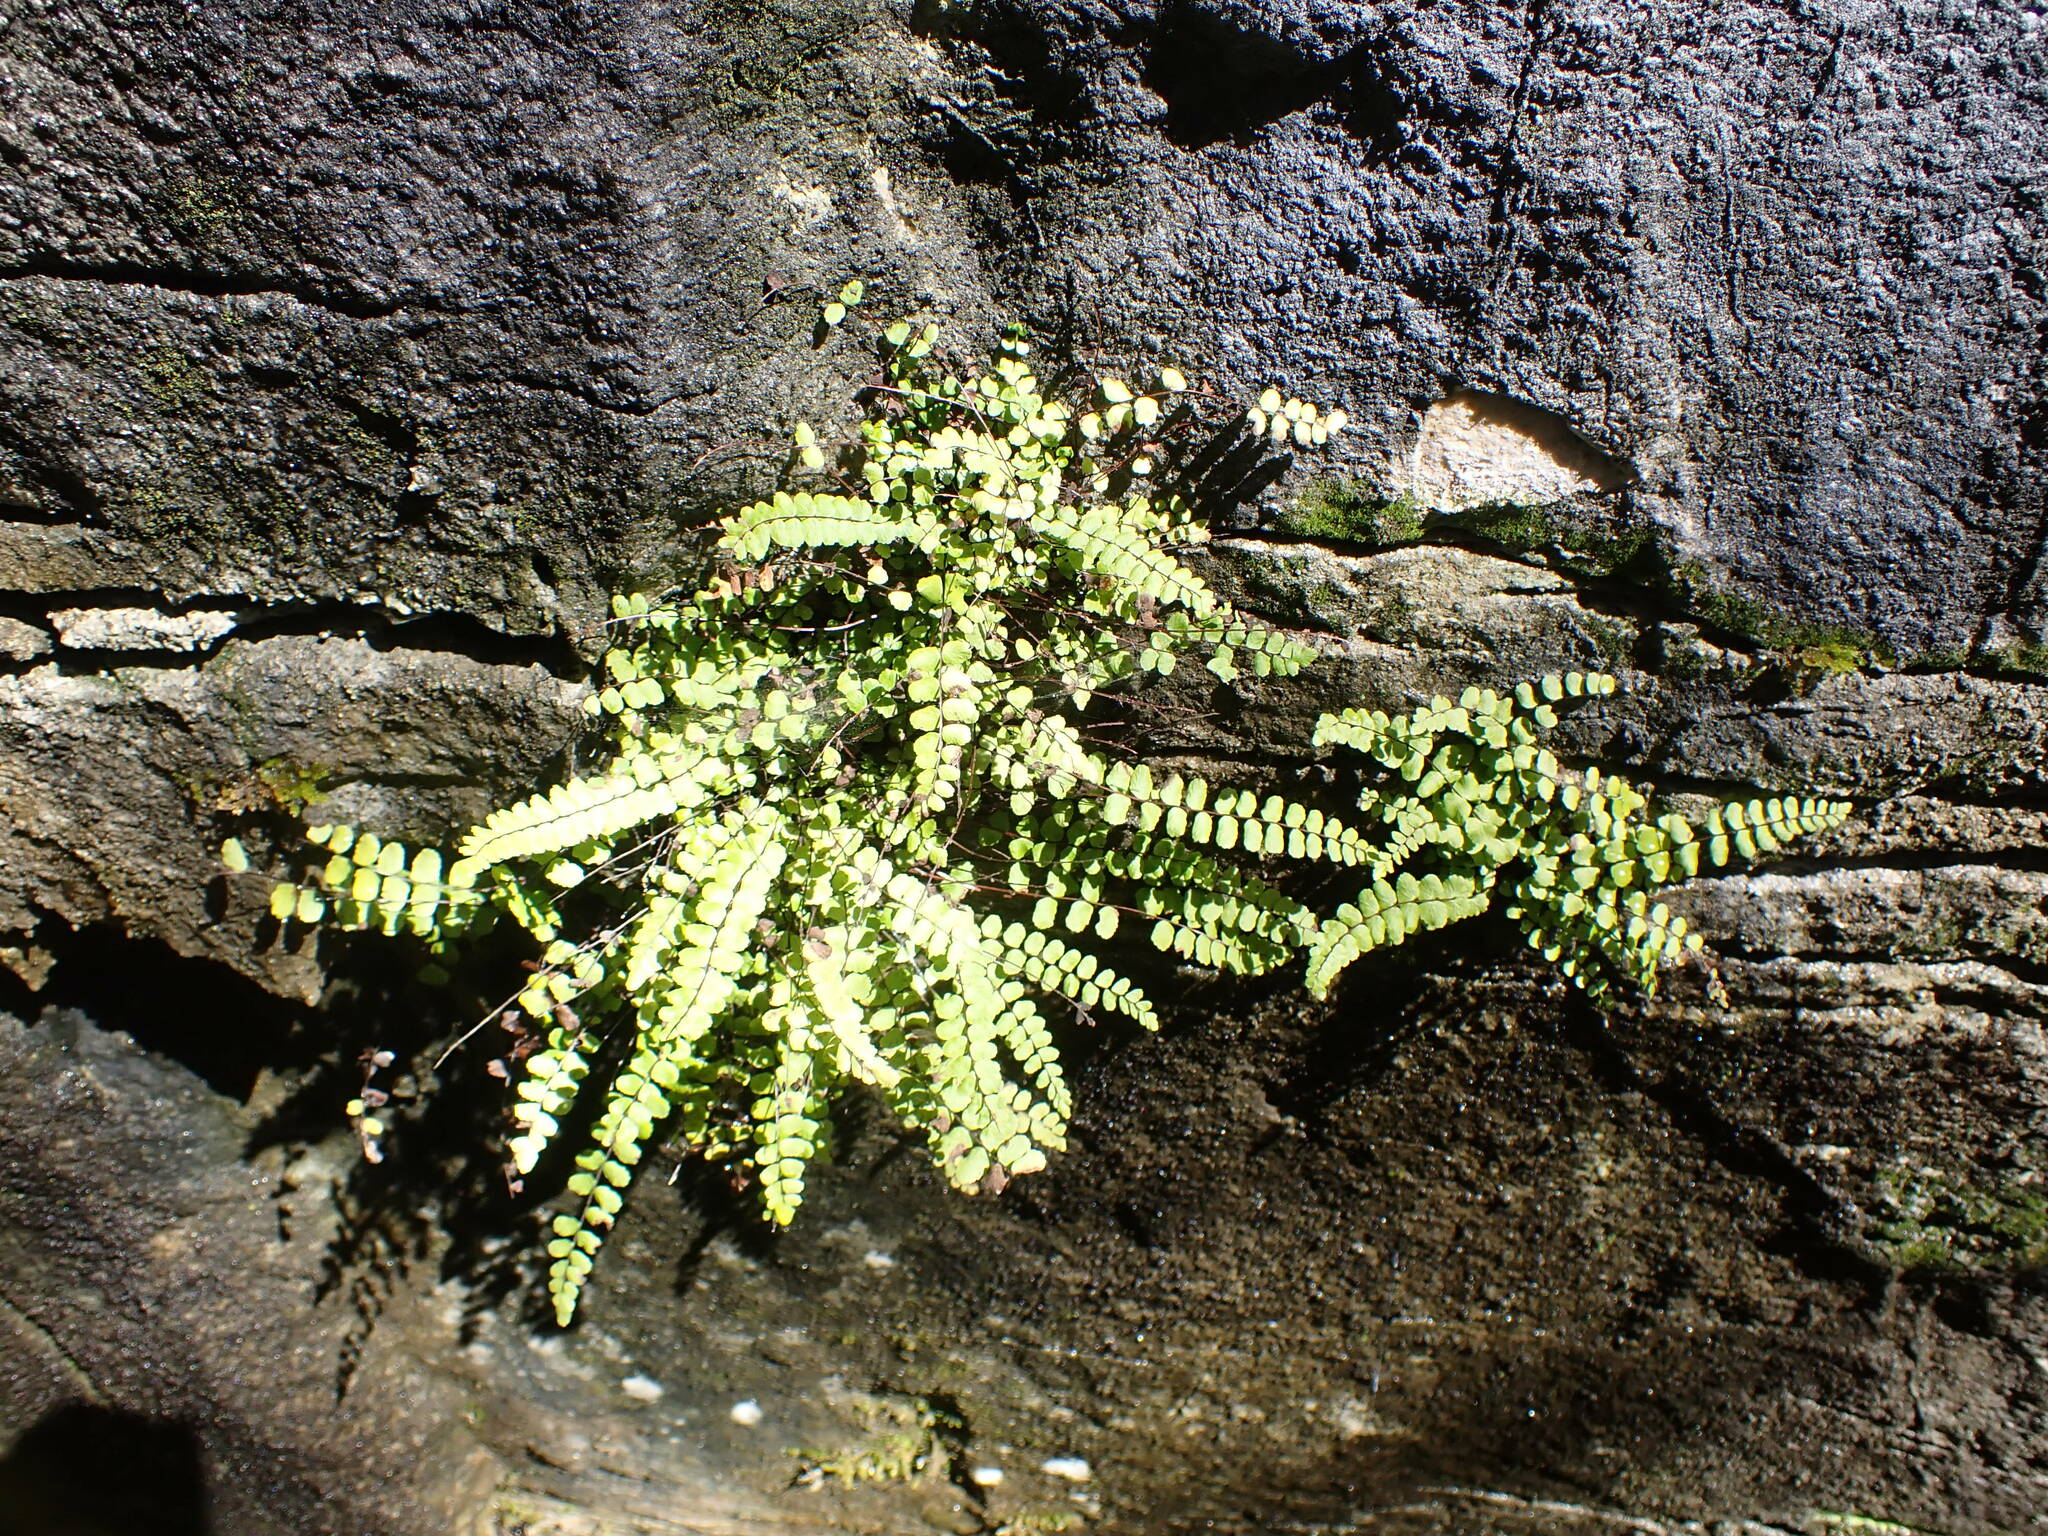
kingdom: Plantae
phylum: Tracheophyta
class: Polypodiopsida
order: Polypodiales
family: Aspleniaceae
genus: Asplenium
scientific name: Asplenium trichomanes
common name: Maidenhair spleenwort
